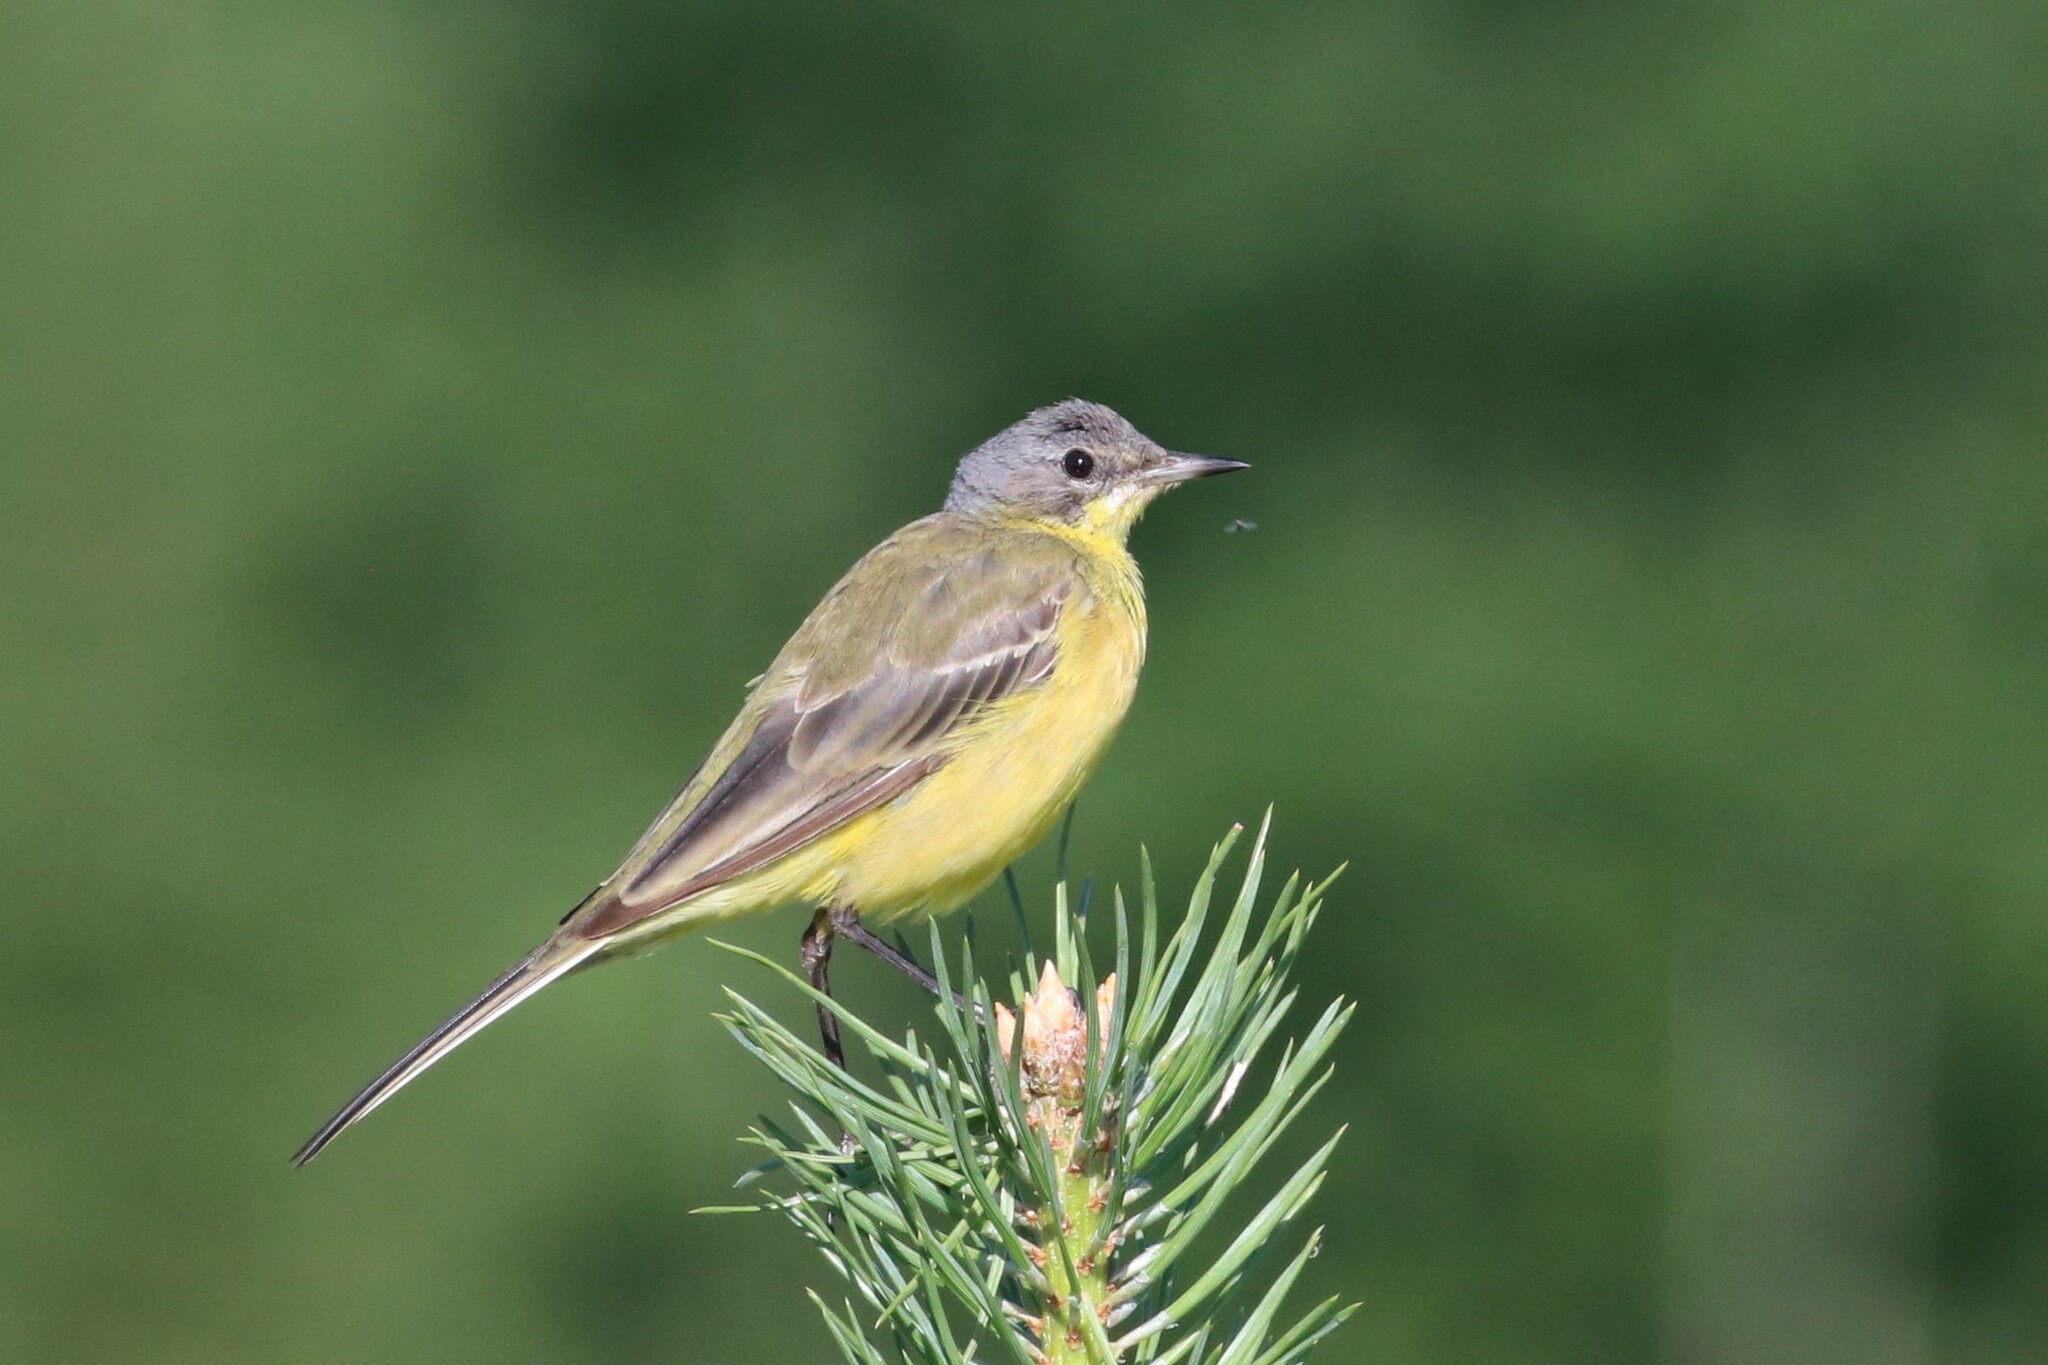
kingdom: Animalia
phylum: Chordata
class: Aves
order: Passeriformes
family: Motacillidae
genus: Motacilla
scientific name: Motacilla flava
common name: Western yellow wagtail
